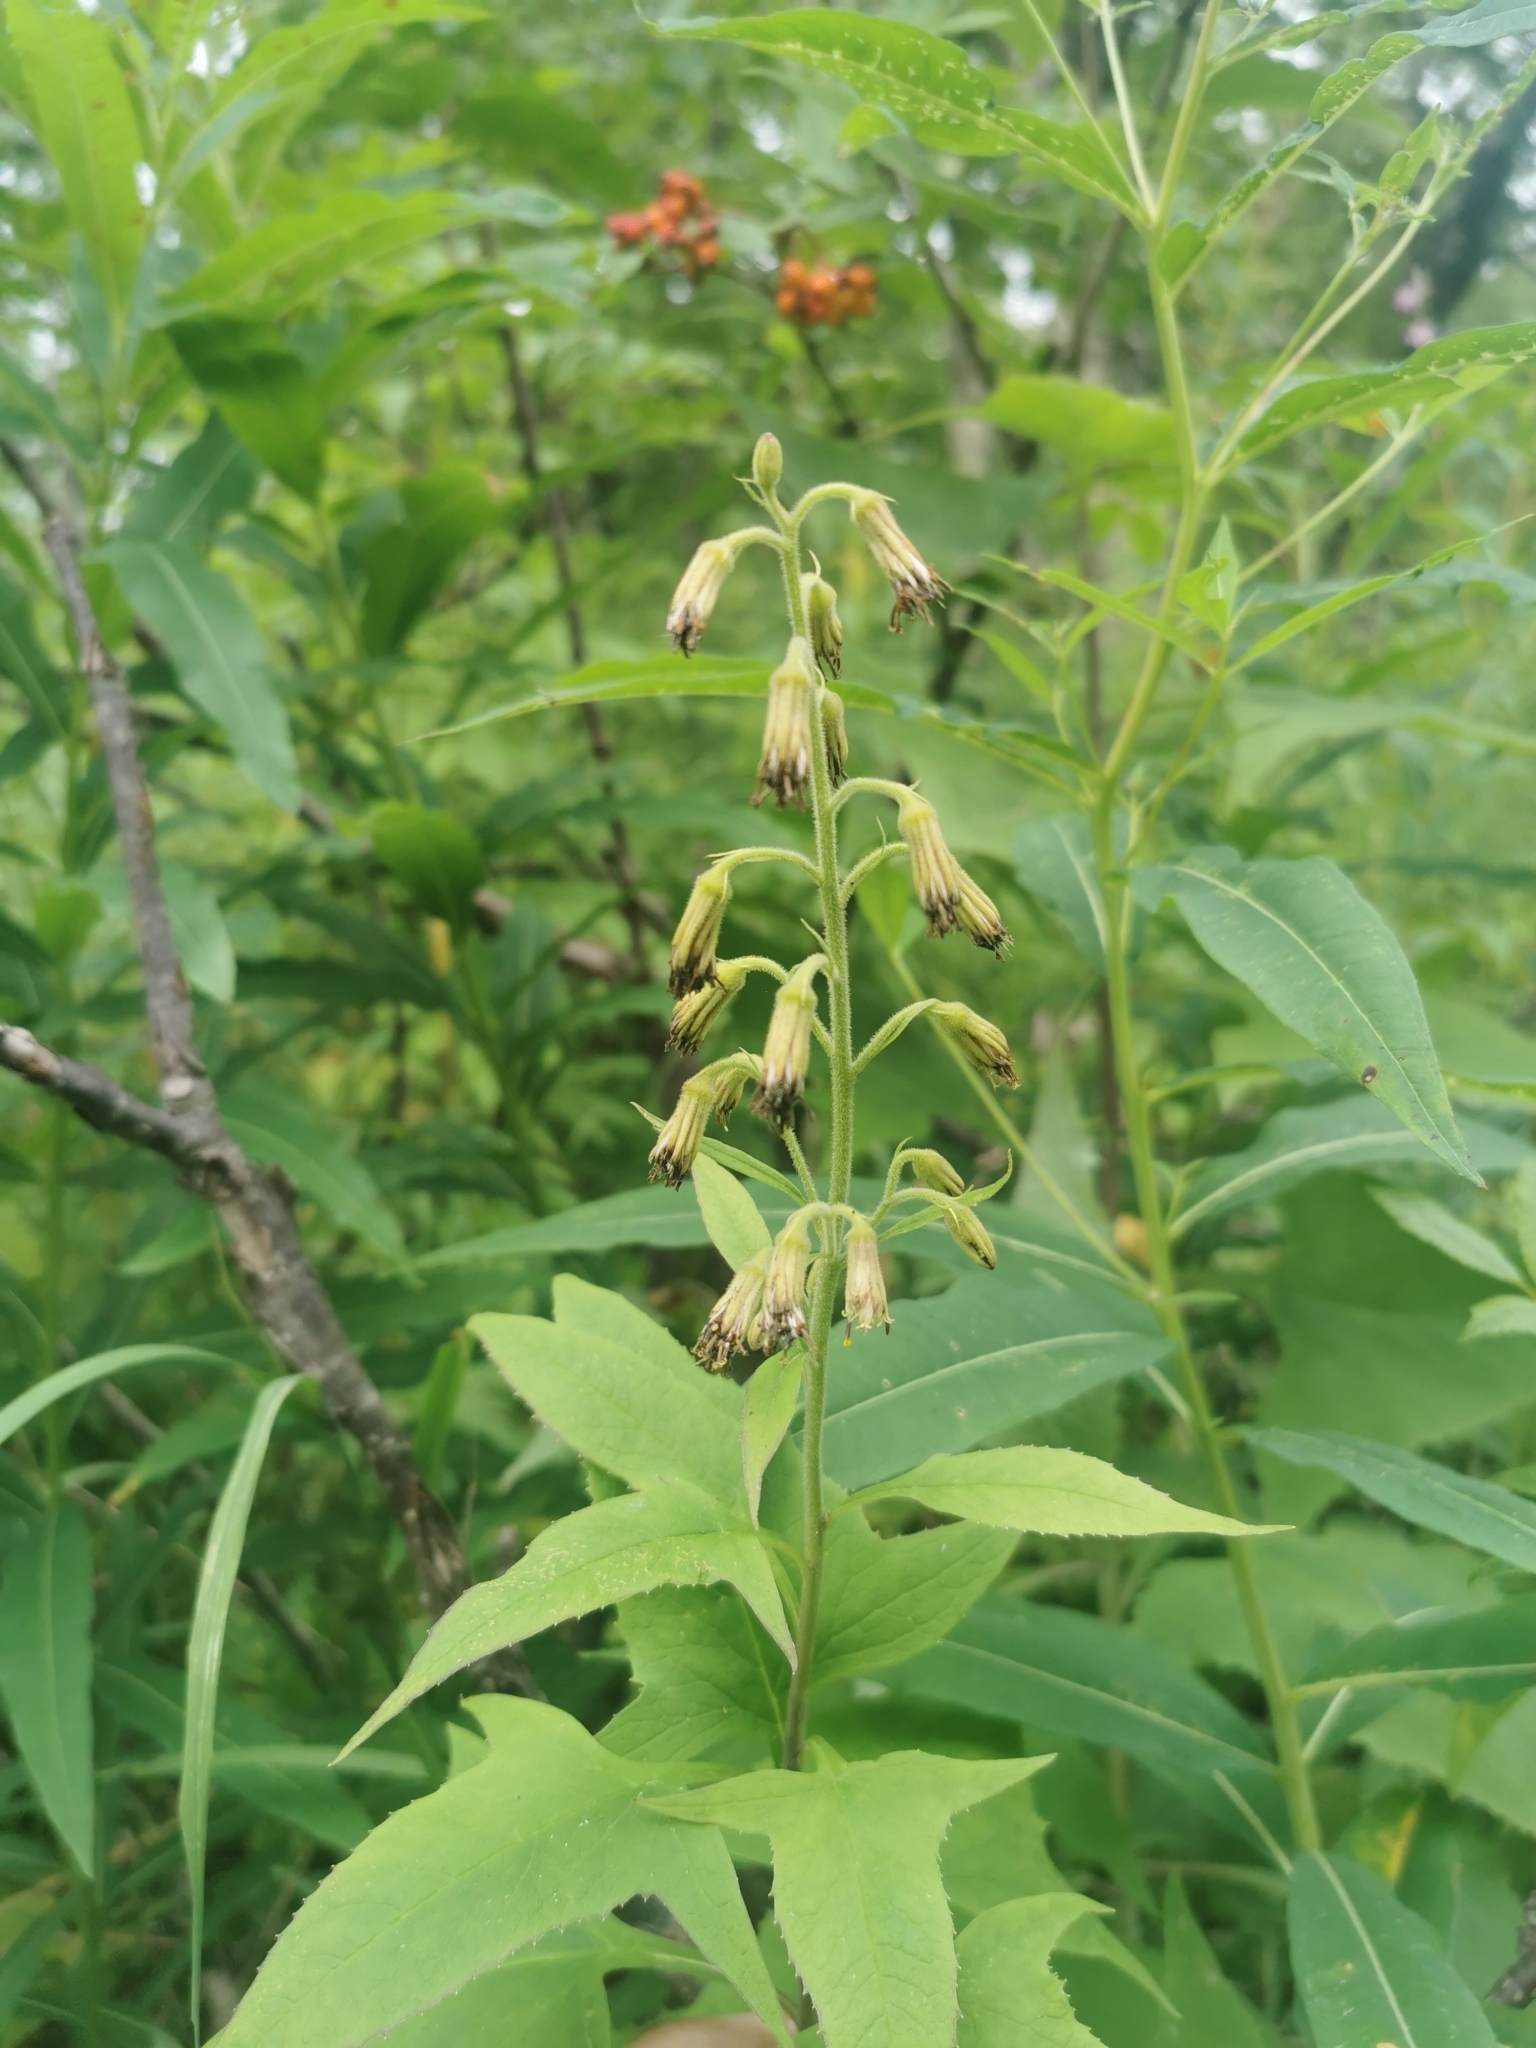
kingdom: Plantae
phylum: Tracheophyta
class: Magnoliopsida
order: Asterales
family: Asteraceae
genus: Parasenecio
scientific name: Parasenecio hastatus
